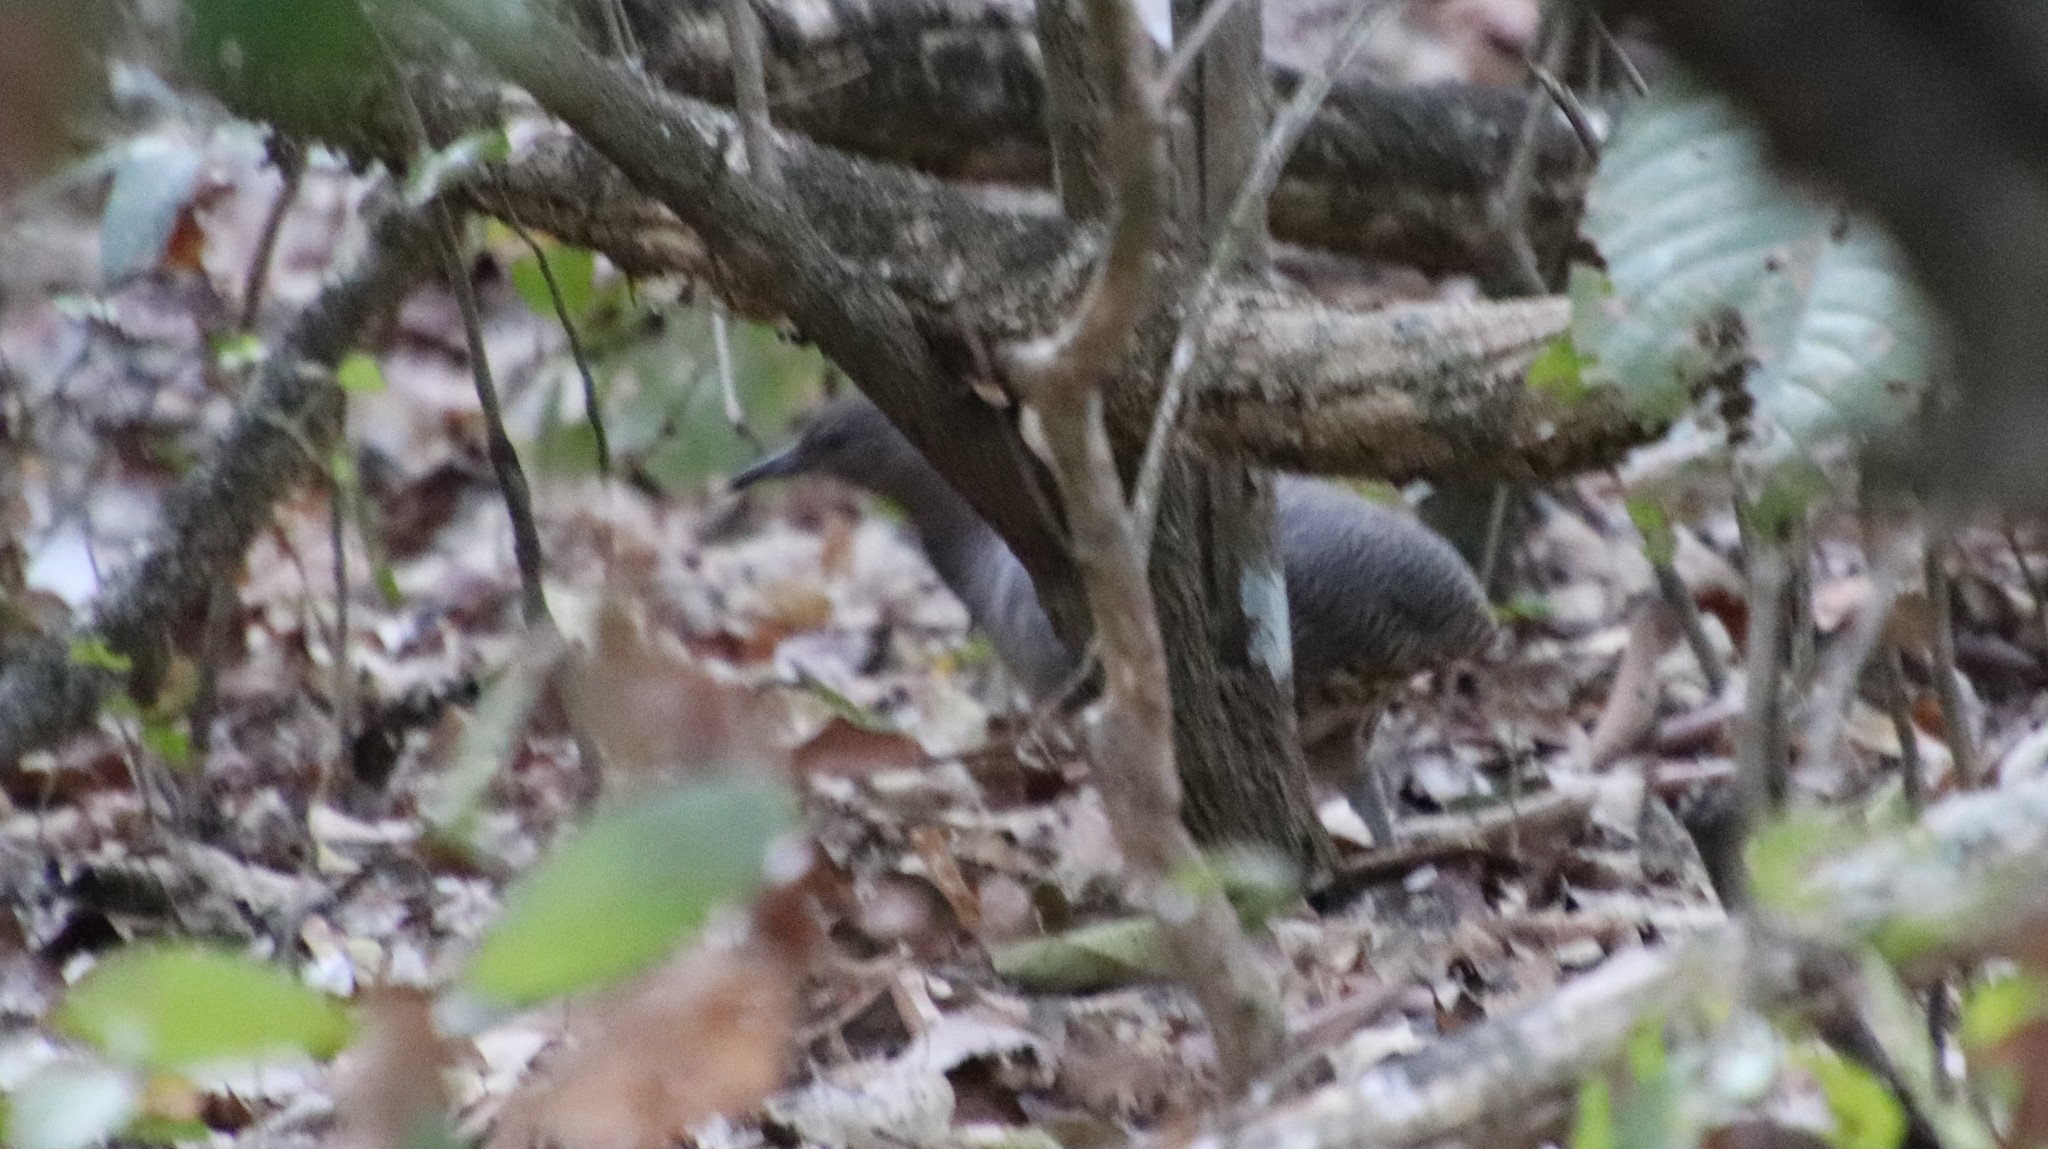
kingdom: Animalia
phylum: Chordata
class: Aves
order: Tinamiformes
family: Tinamidae
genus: Crypturellus
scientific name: Crypturellus undulatus
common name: Undulated tinamou
